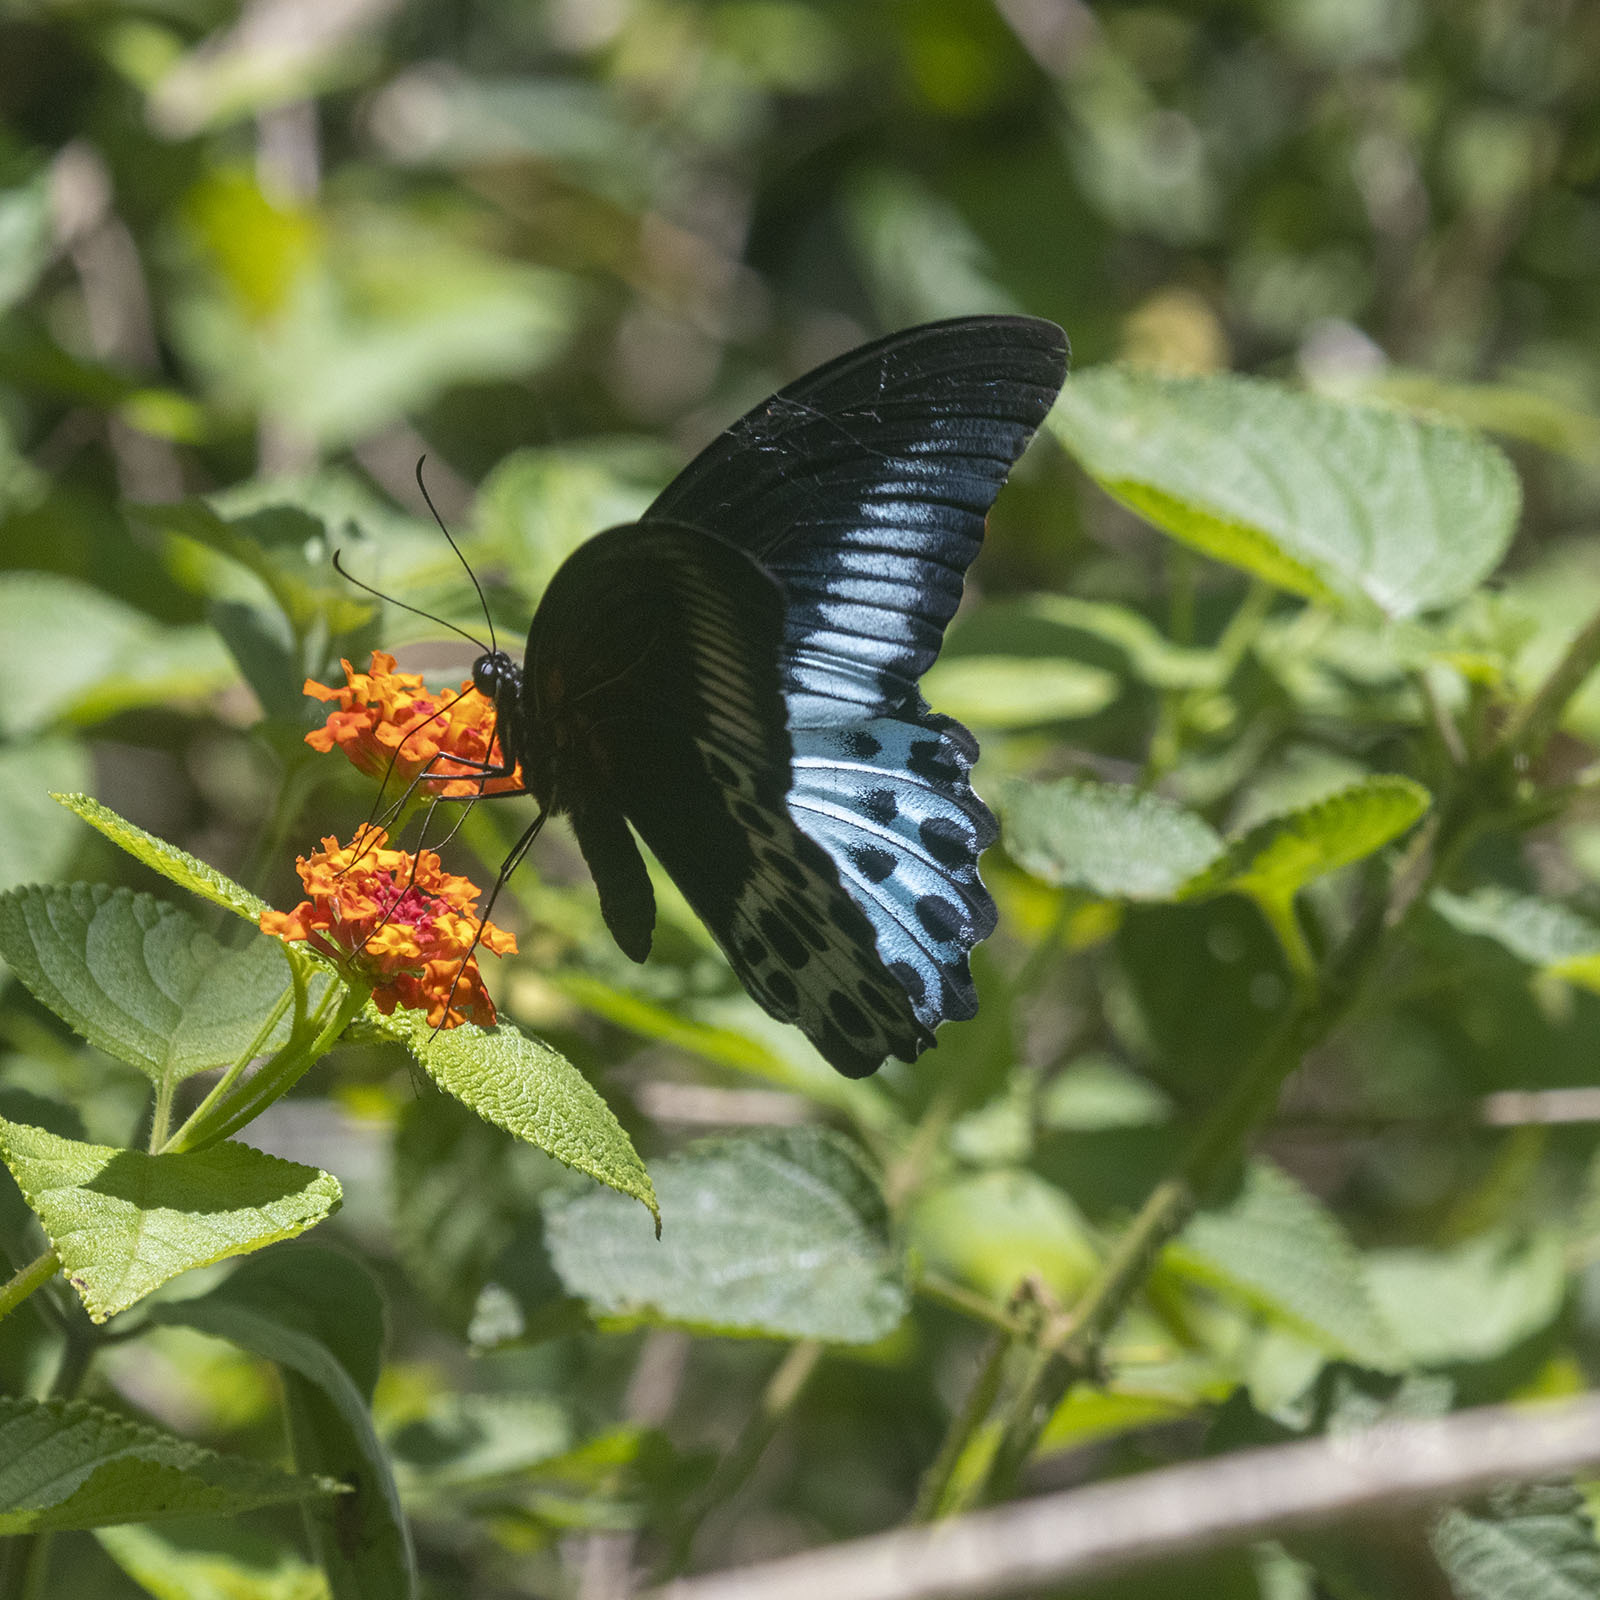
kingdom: Animalia
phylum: Arthropoda
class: Insecta
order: Lepidoptera
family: Papilionidae
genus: Papilio
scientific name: Papilio memnon
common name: Great mormon
